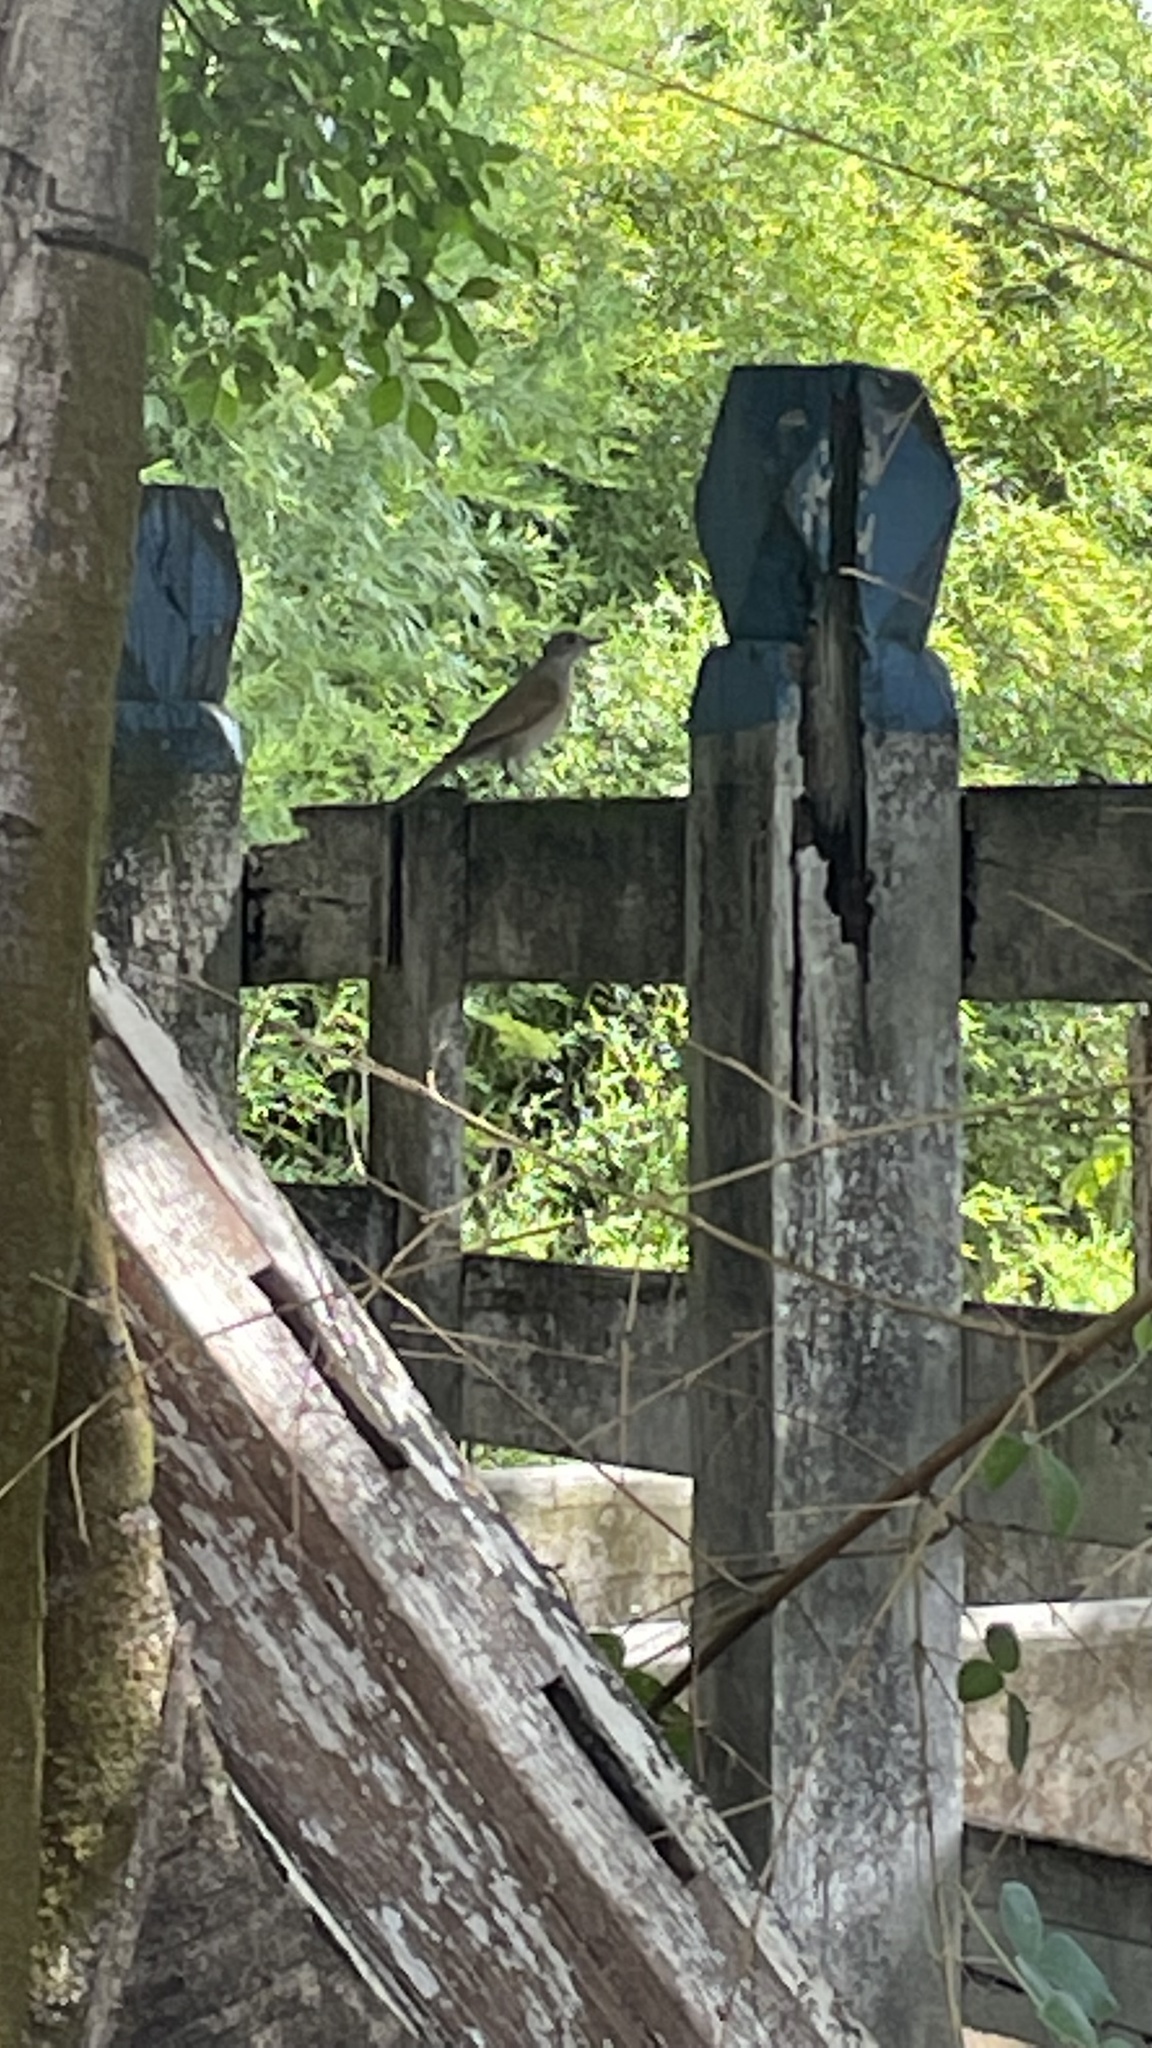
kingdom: Animalia
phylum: Chordata
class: Aves
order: Passeriformes
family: Turdidae
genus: Turdus
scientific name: Turdus leucomelas
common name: Pale-breasted thrush
